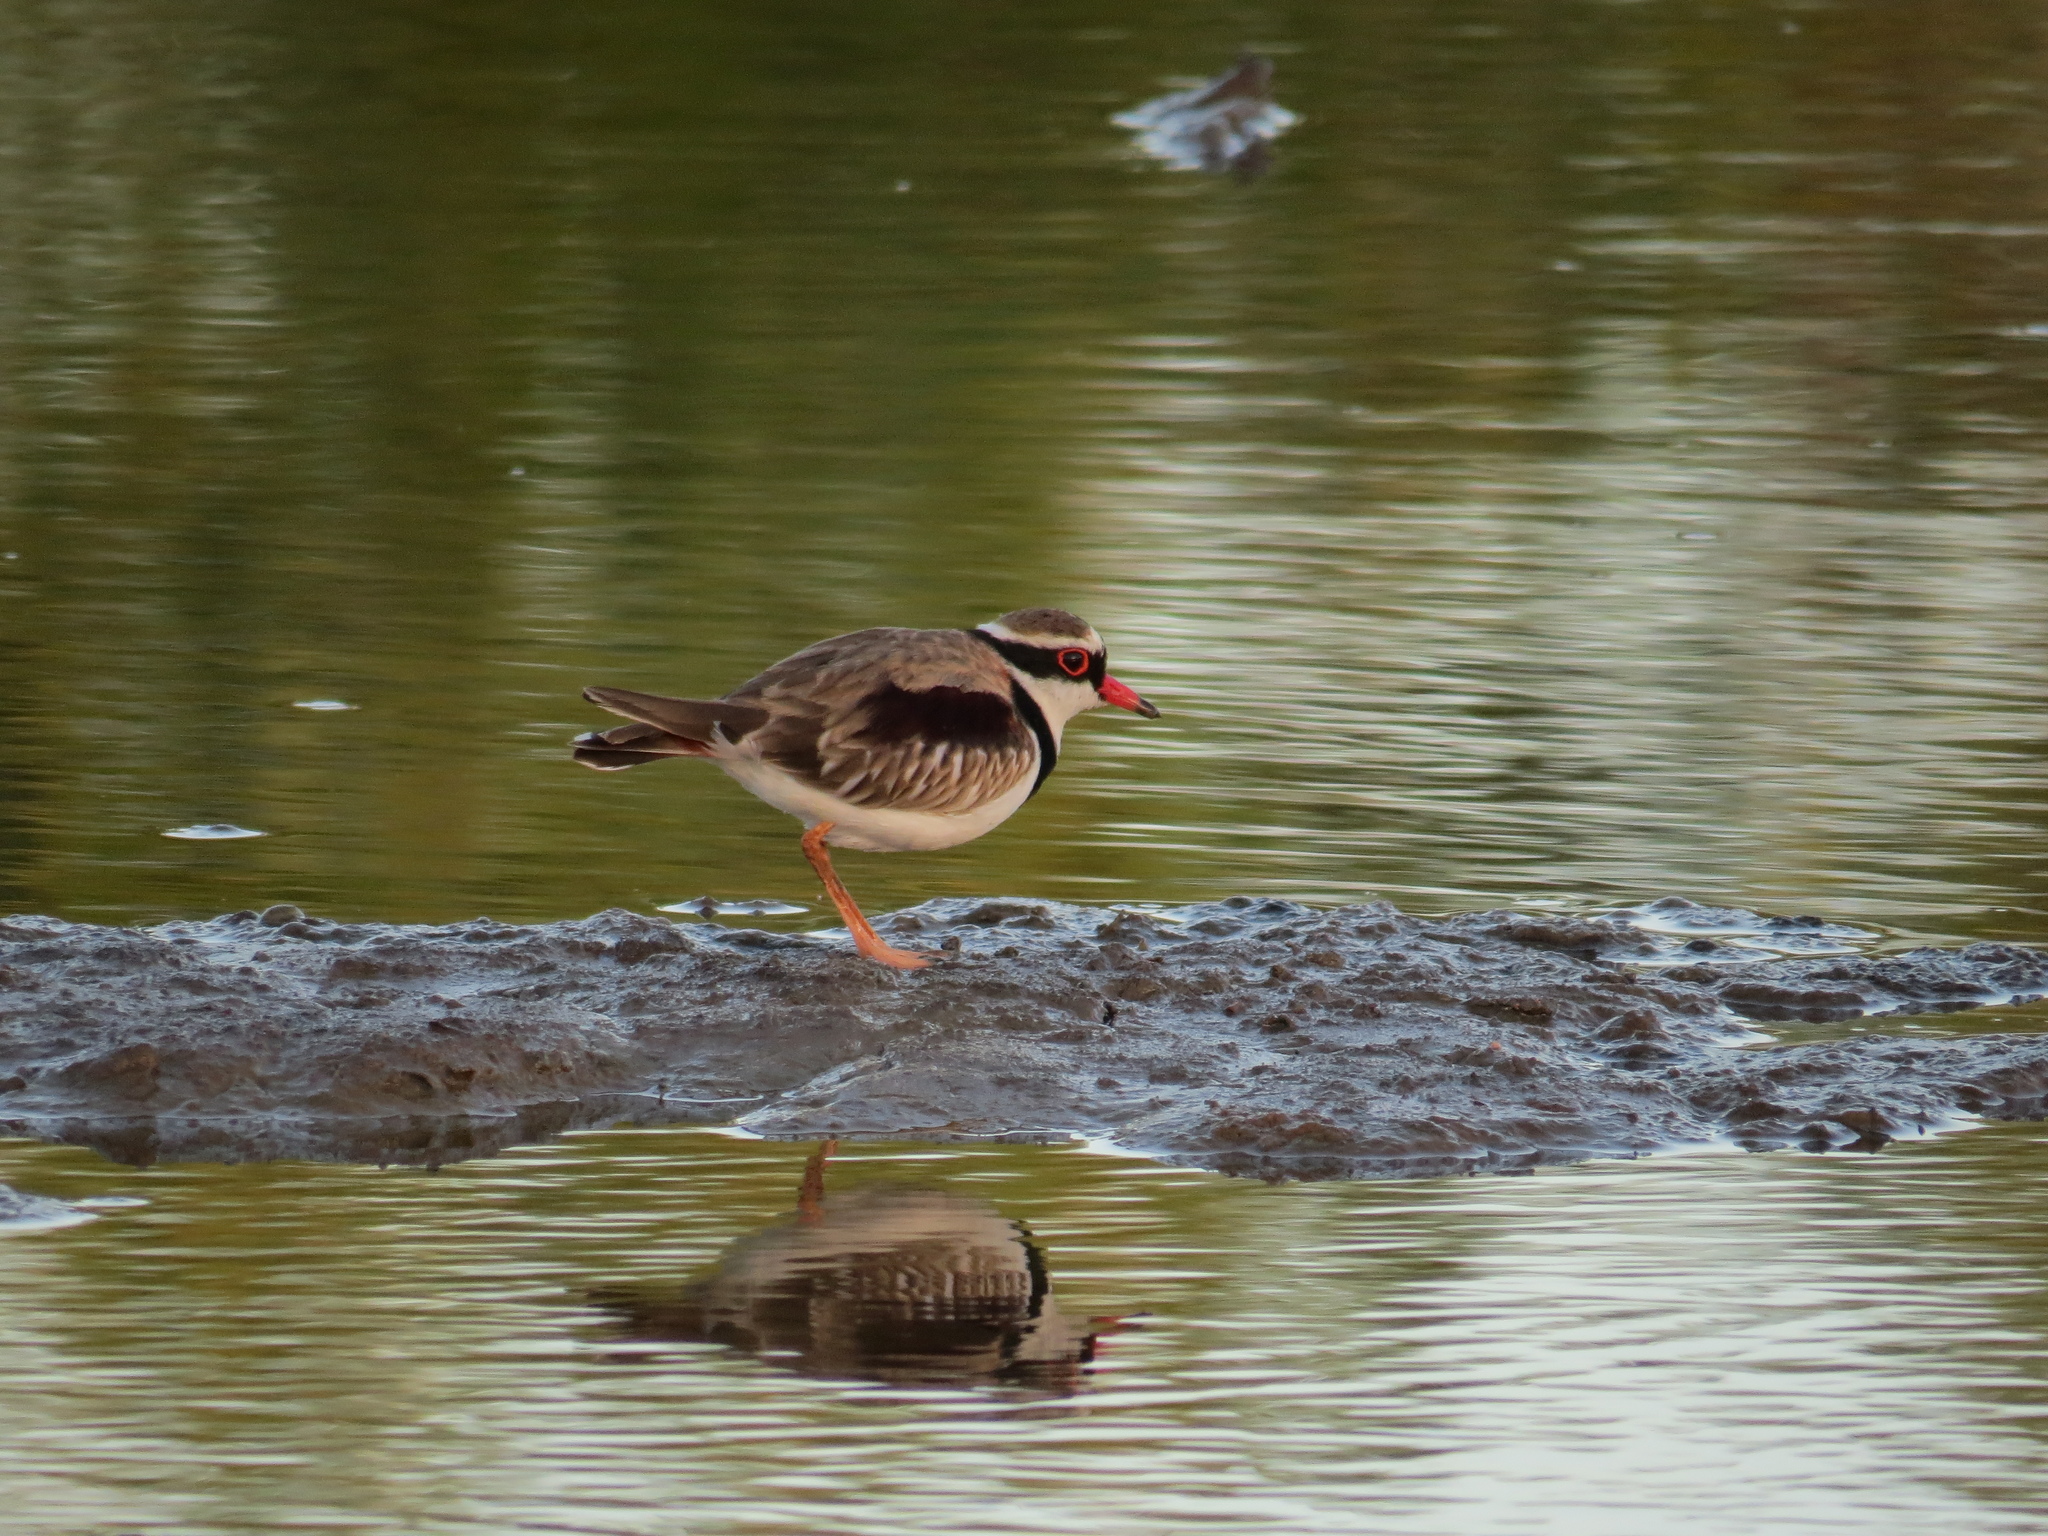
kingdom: Animalia
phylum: Chordata
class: Aves
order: Charadriiformes
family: Charadriidae
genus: Elseyornis
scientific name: Elseyornis melanops
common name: Black-fronted dotterel
